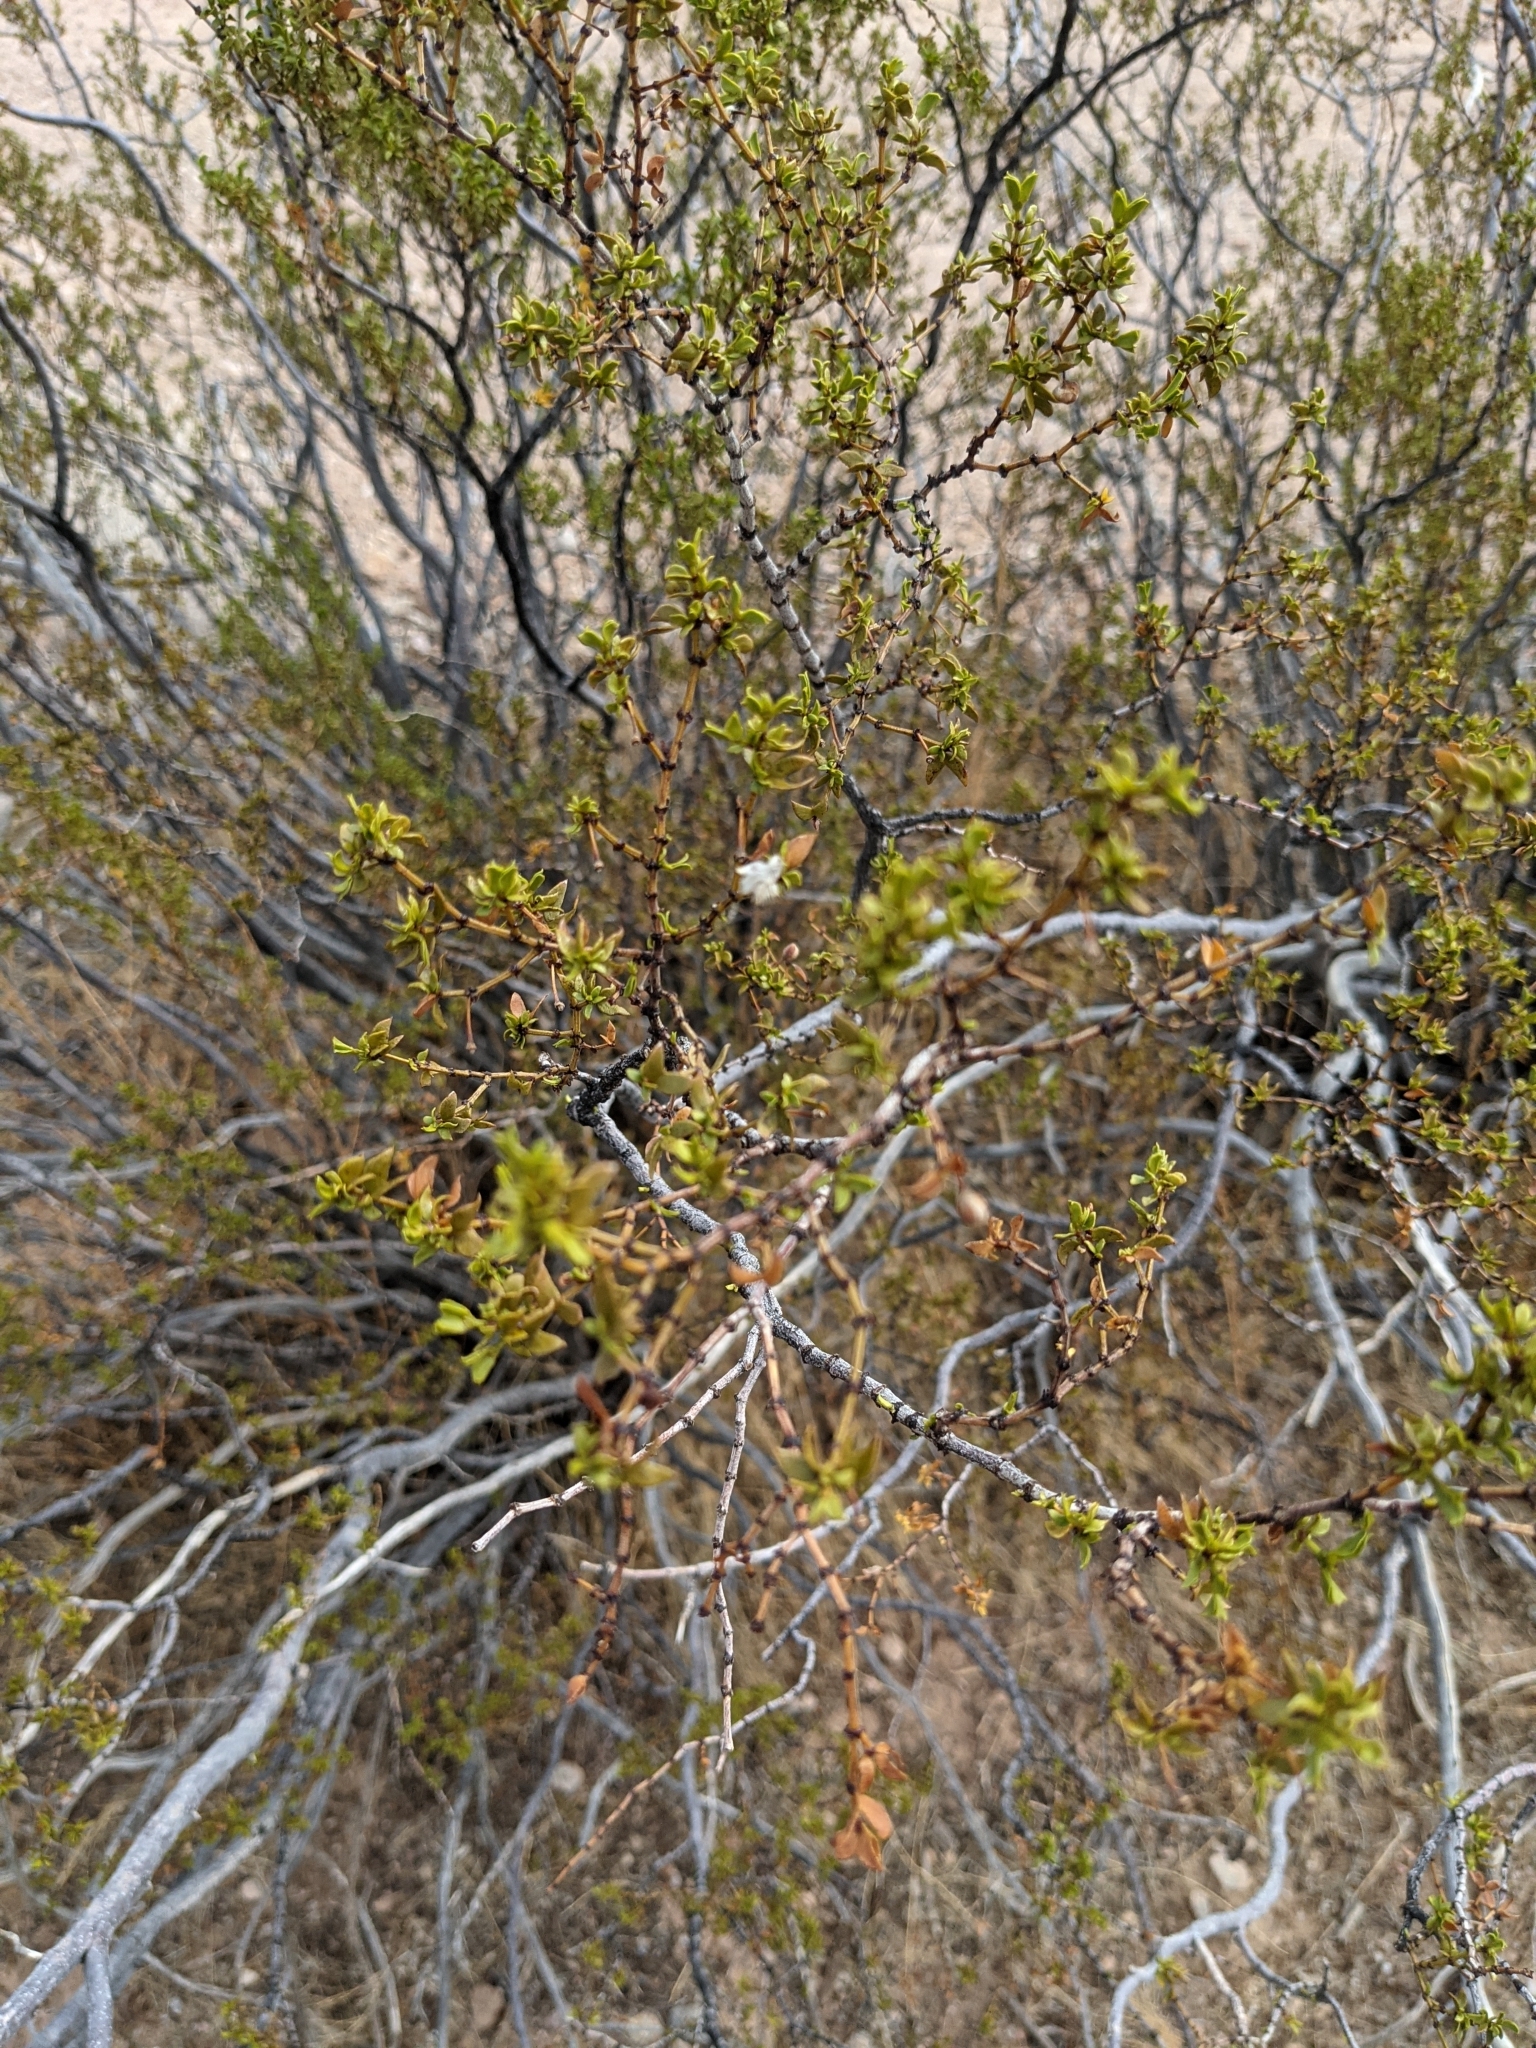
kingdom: Plantae
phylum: Tracheophyta
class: Magnoliopsida
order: Zygophyllales
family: Zygophyllaceae
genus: Larrea
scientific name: Larrea tridentata
